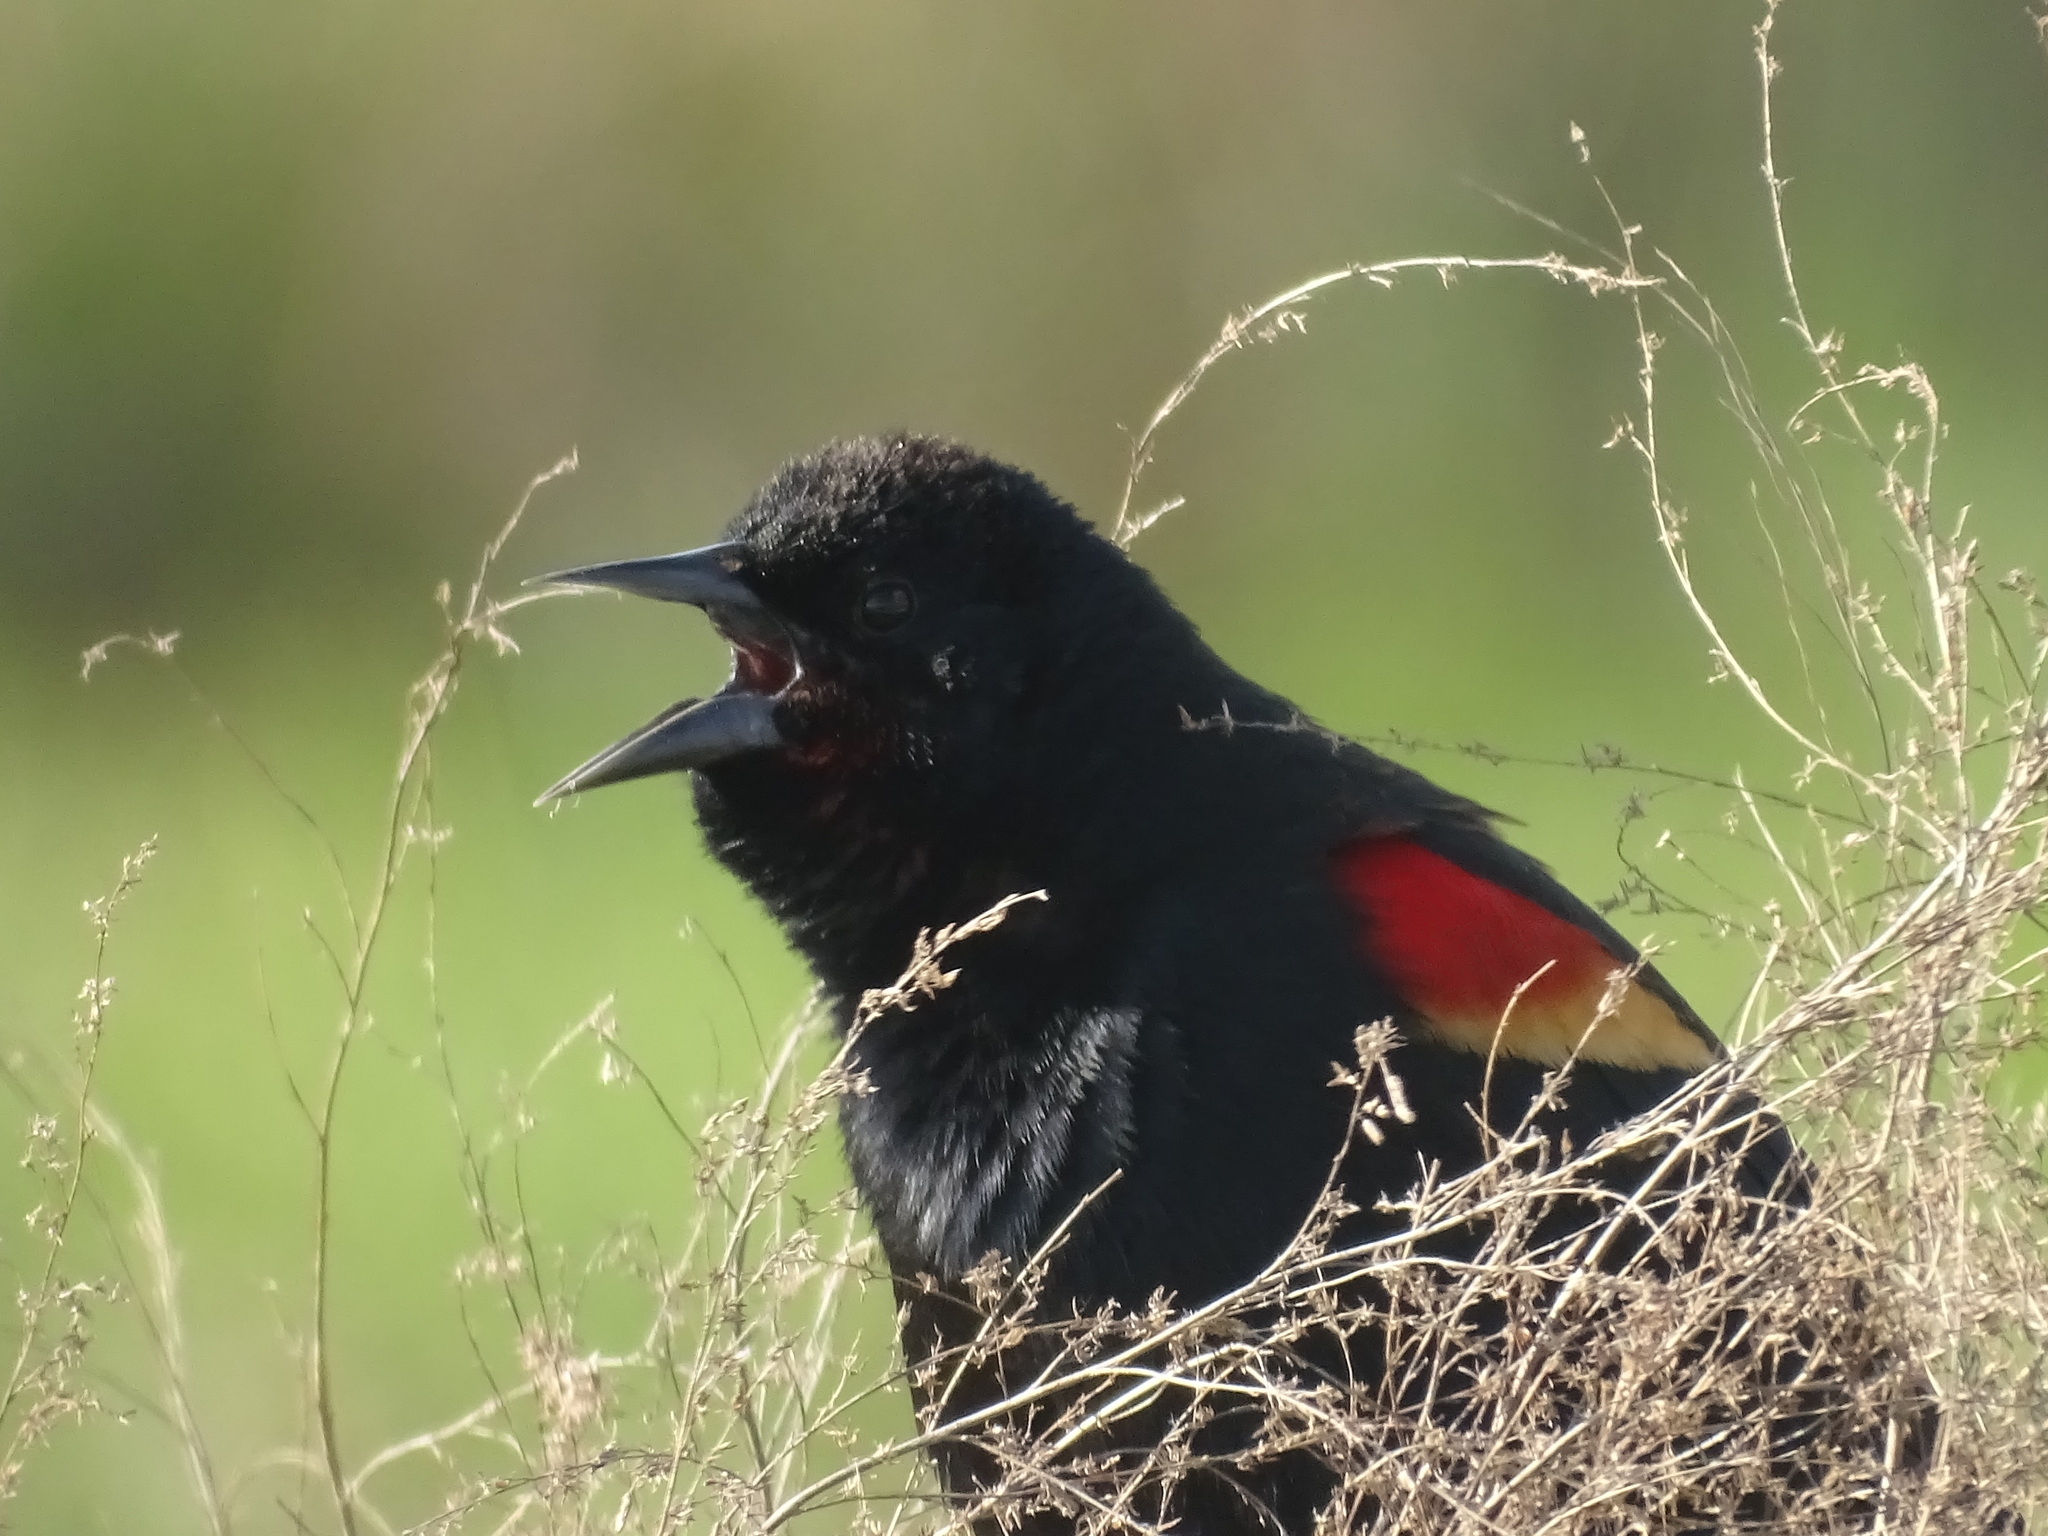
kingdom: Animalia
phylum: Chordata
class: Aves
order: Passeriformes
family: Icteridae
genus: Agelaius
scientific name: Agelaius phoeniceus
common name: Red-winged blackbird
